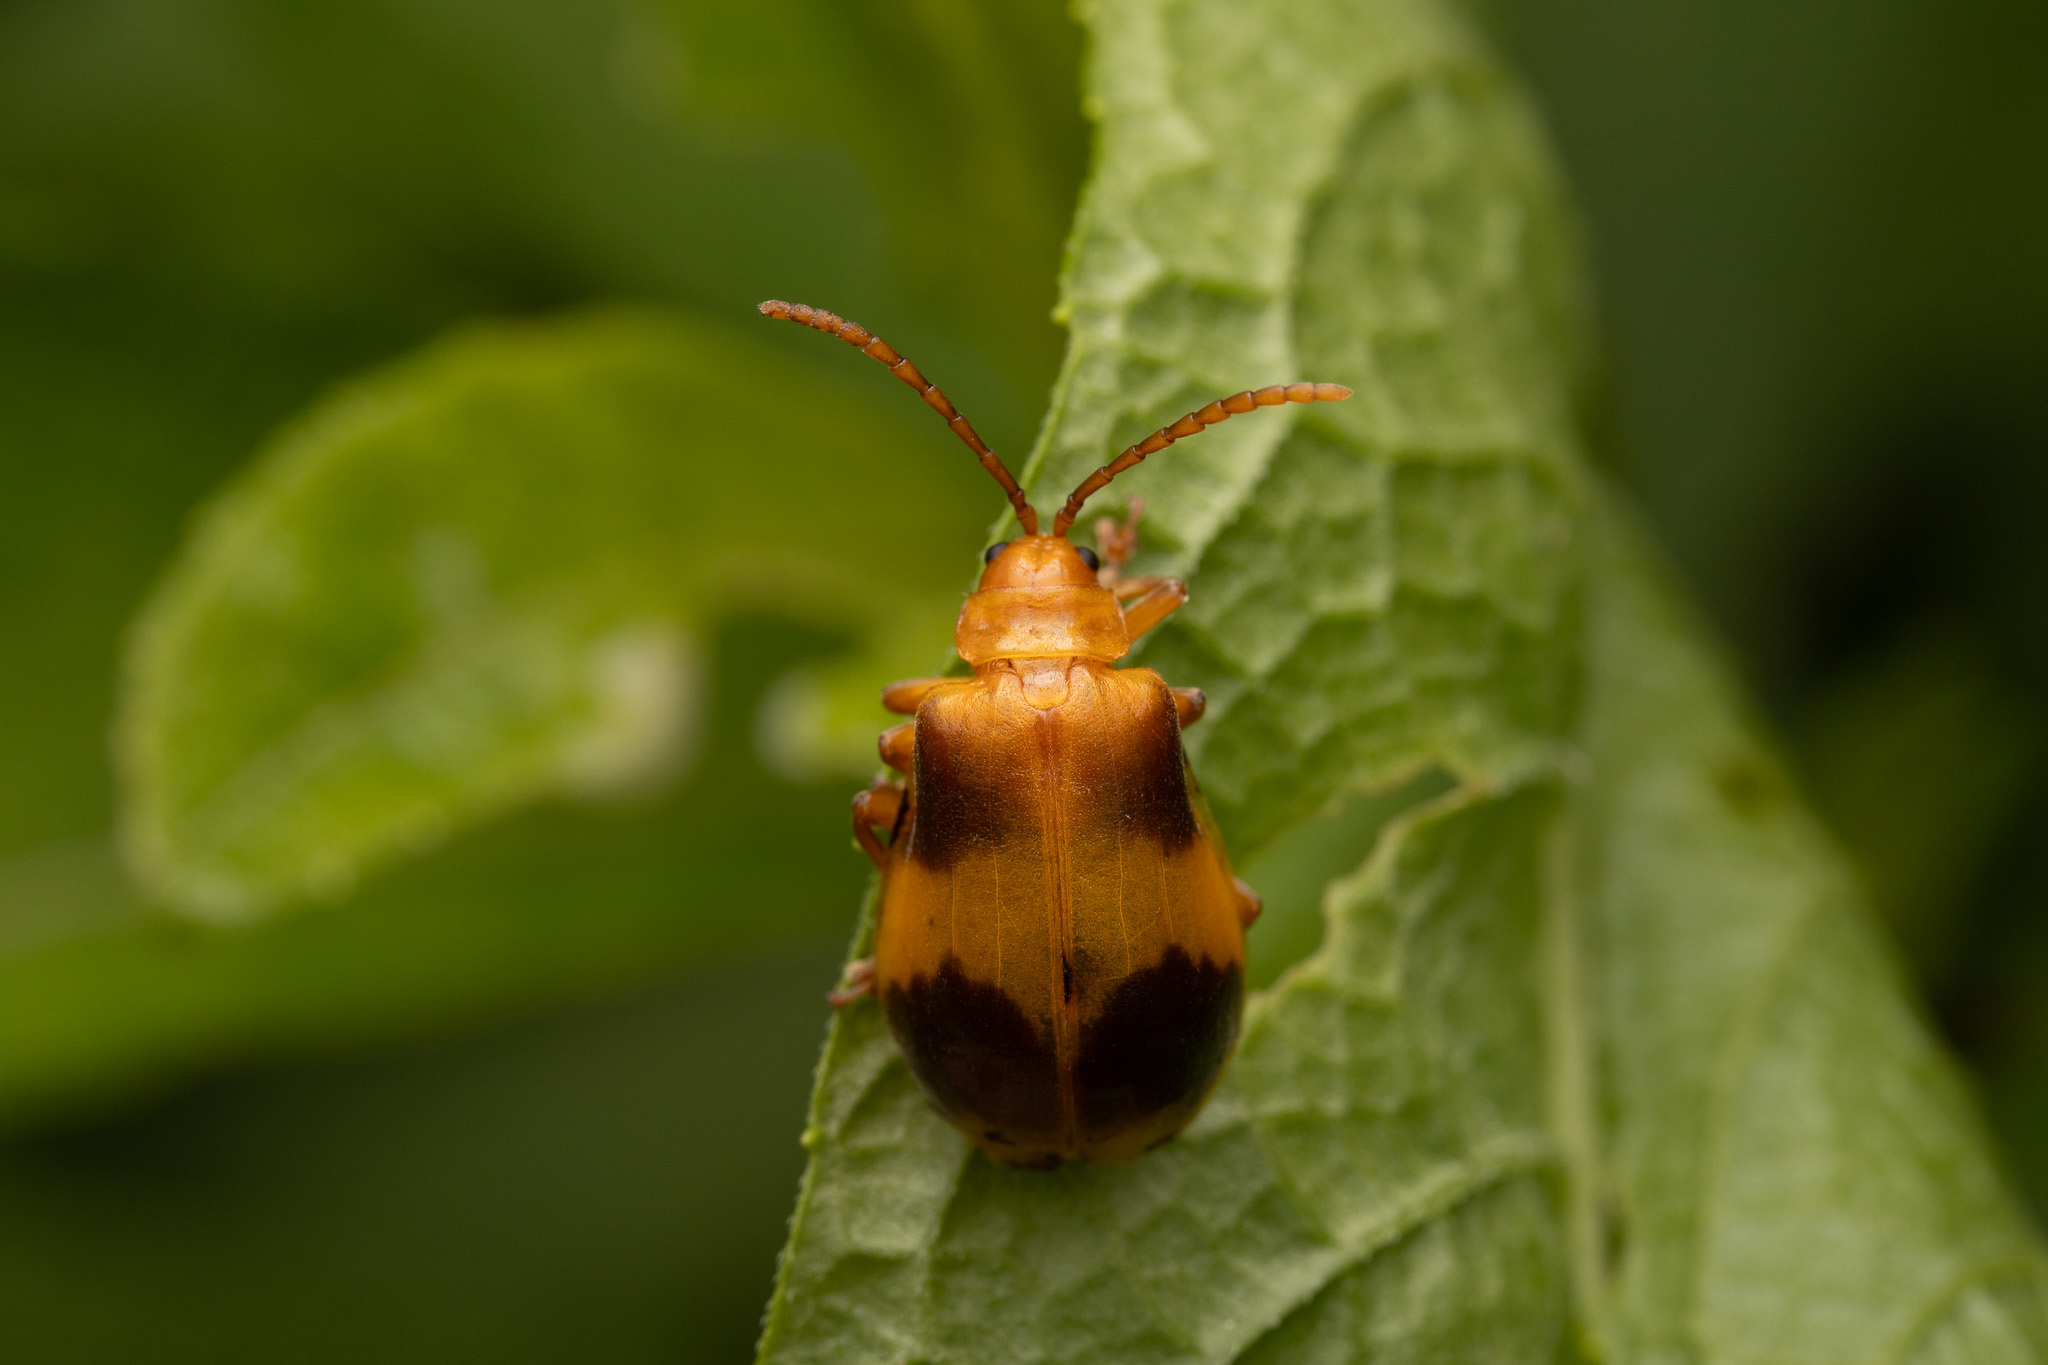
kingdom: Animalia
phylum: Arthropoda
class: Insecta
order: Coleoptera
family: Chrysomelidae
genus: Monocesta
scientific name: Monocesta coryli
